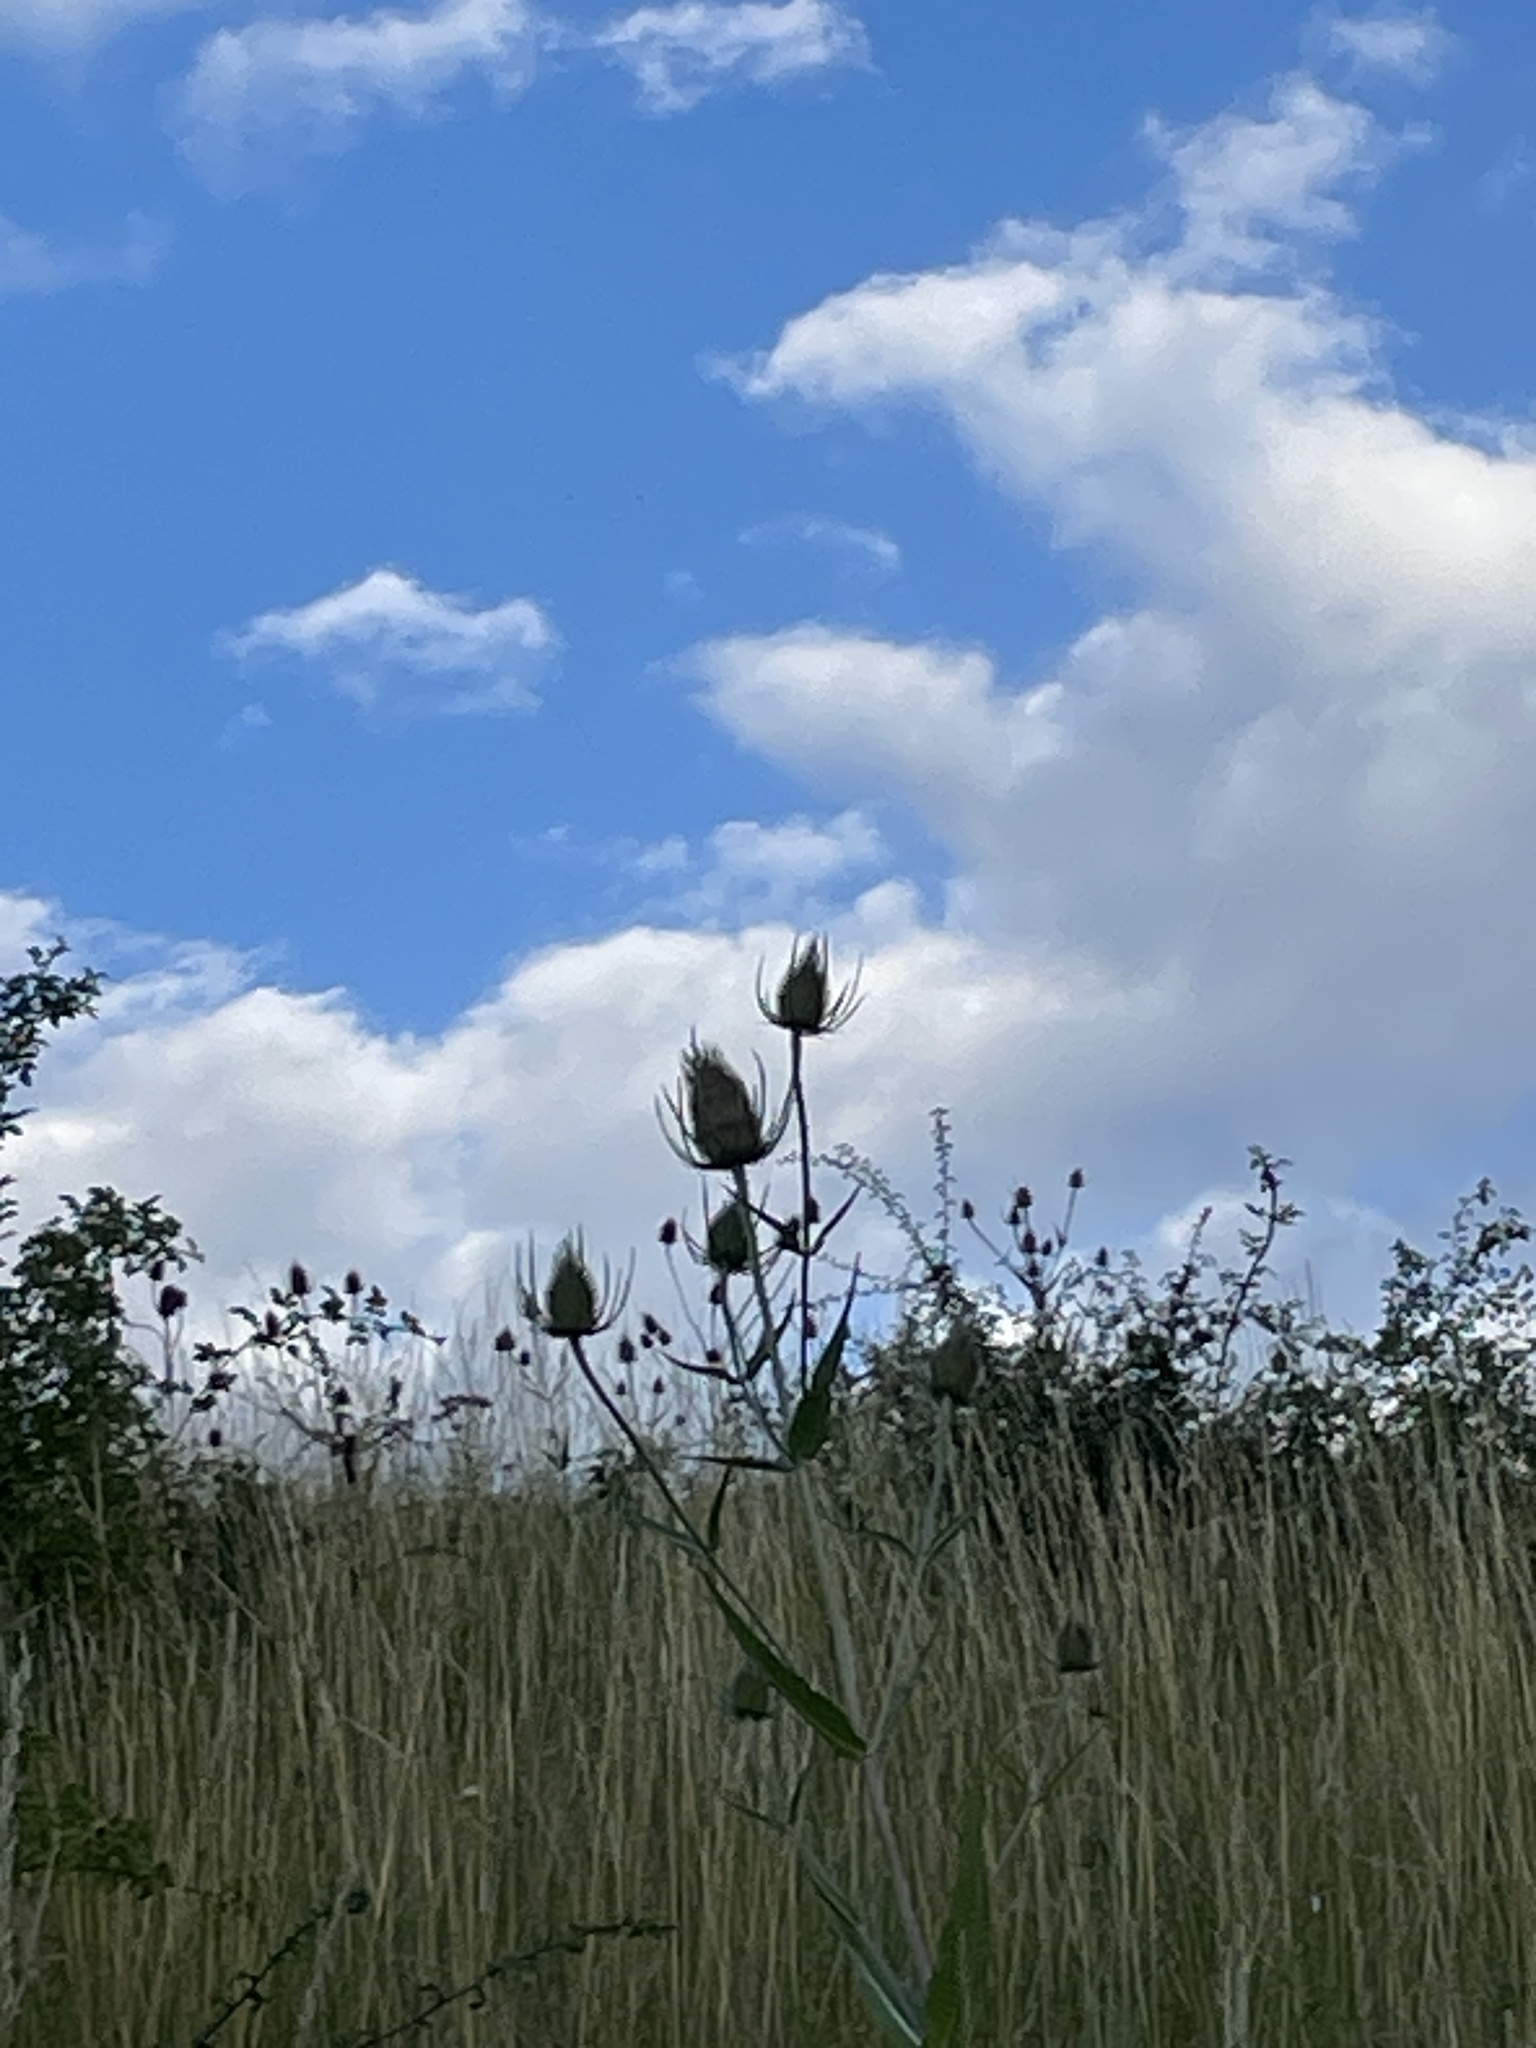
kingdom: Plantae
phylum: Tracheophyta
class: Magnoliopsida
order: Dipsacales
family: Caprifoliaceae
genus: Dipsacus
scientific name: Dipsacus fullonum
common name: Teasel
